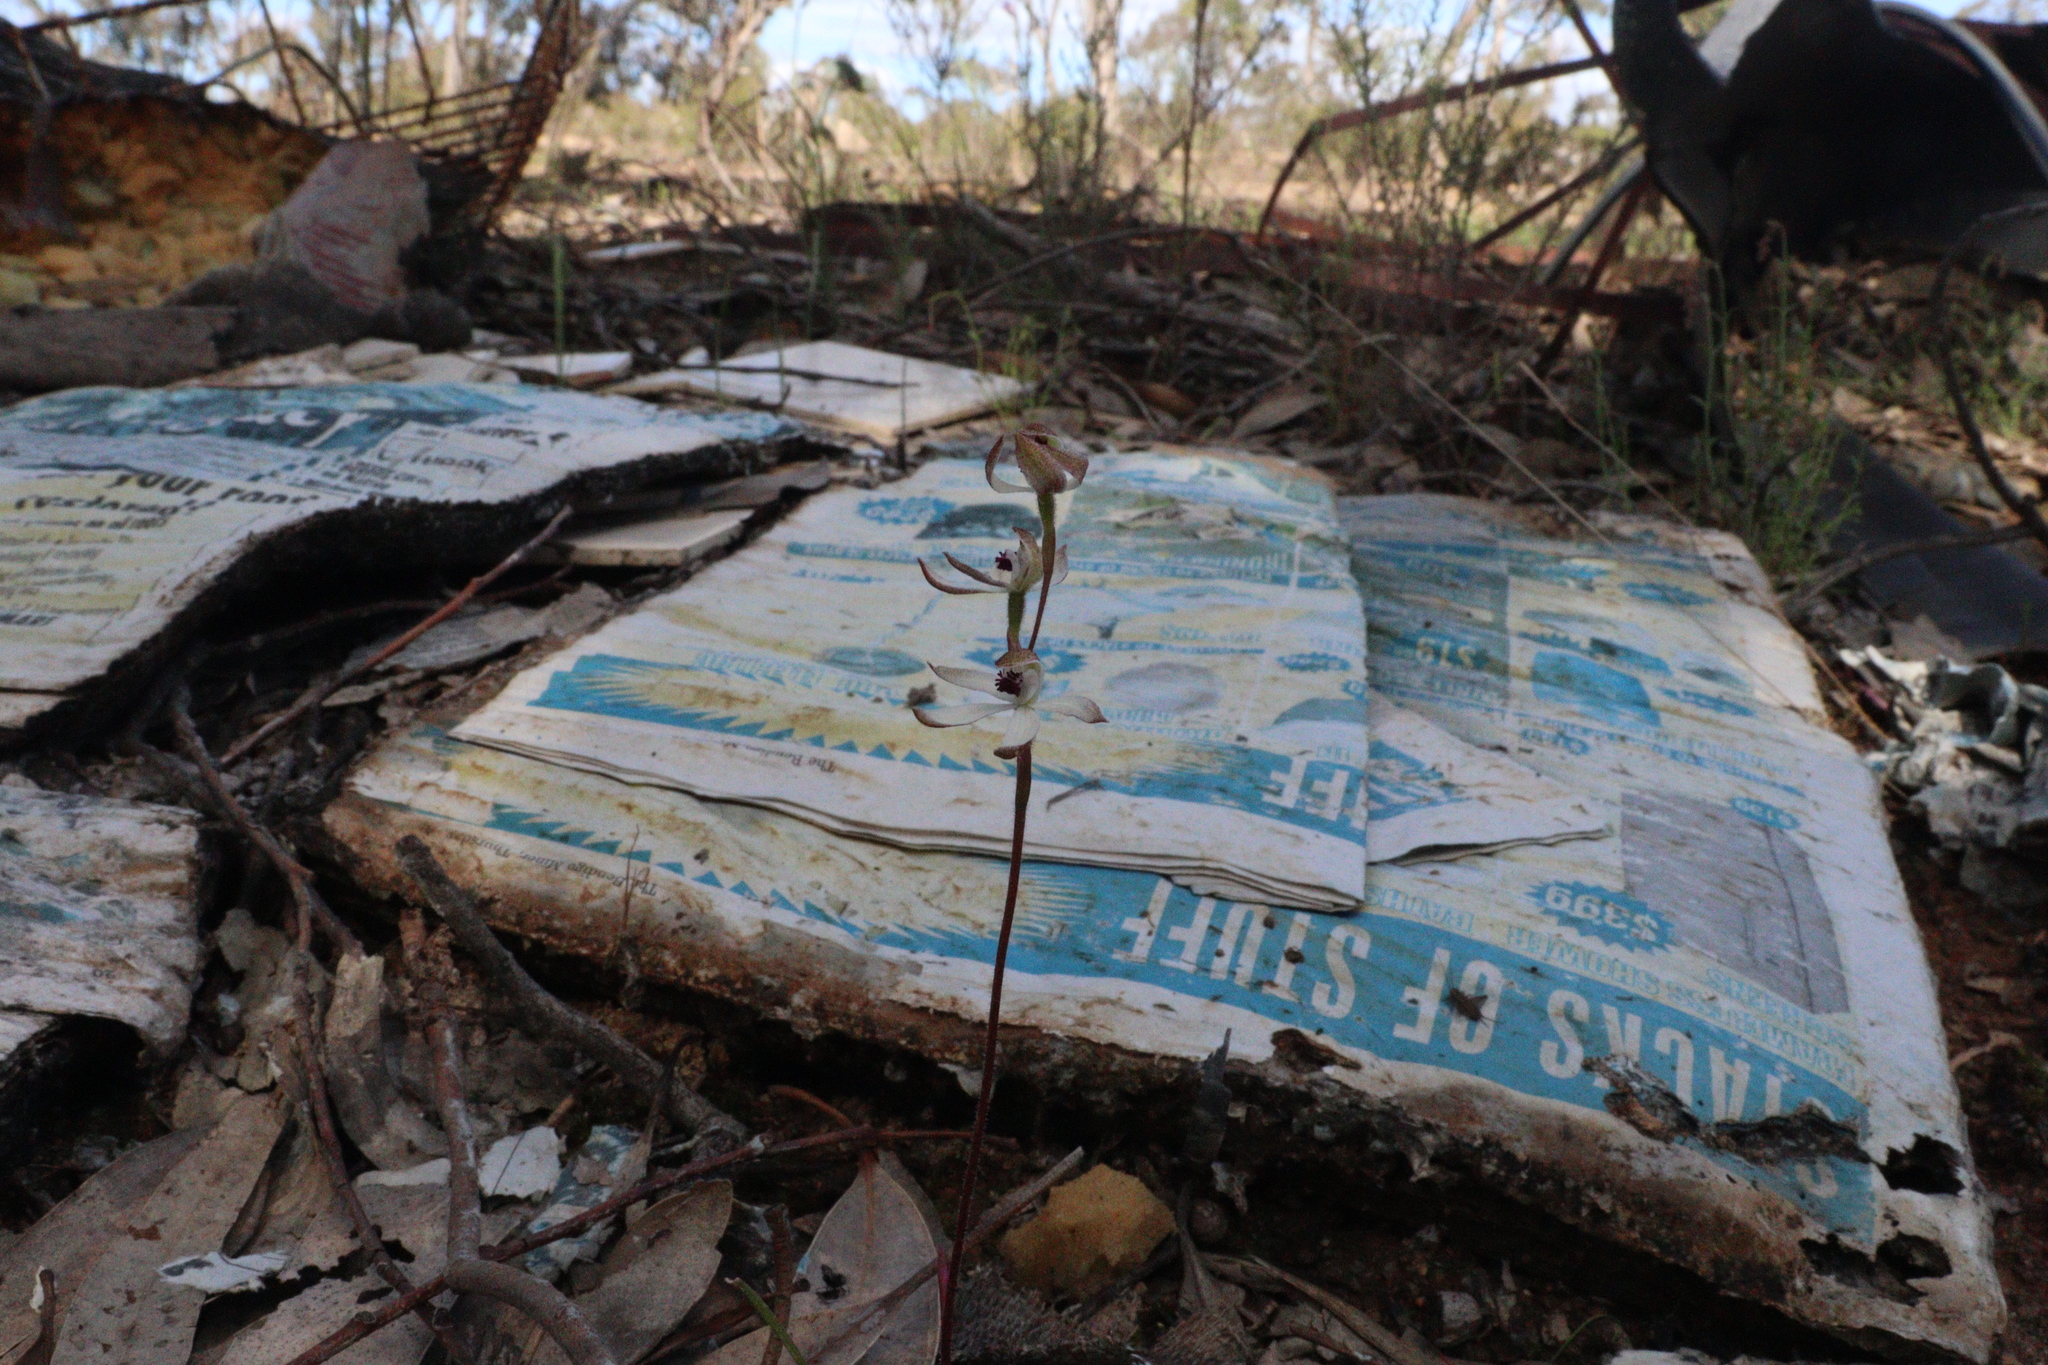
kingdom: Plantae
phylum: Tracheophyta
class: Liliopsida
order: Asparagales
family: Orchidaceae
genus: Caladenia
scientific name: Caladenia cucullata
